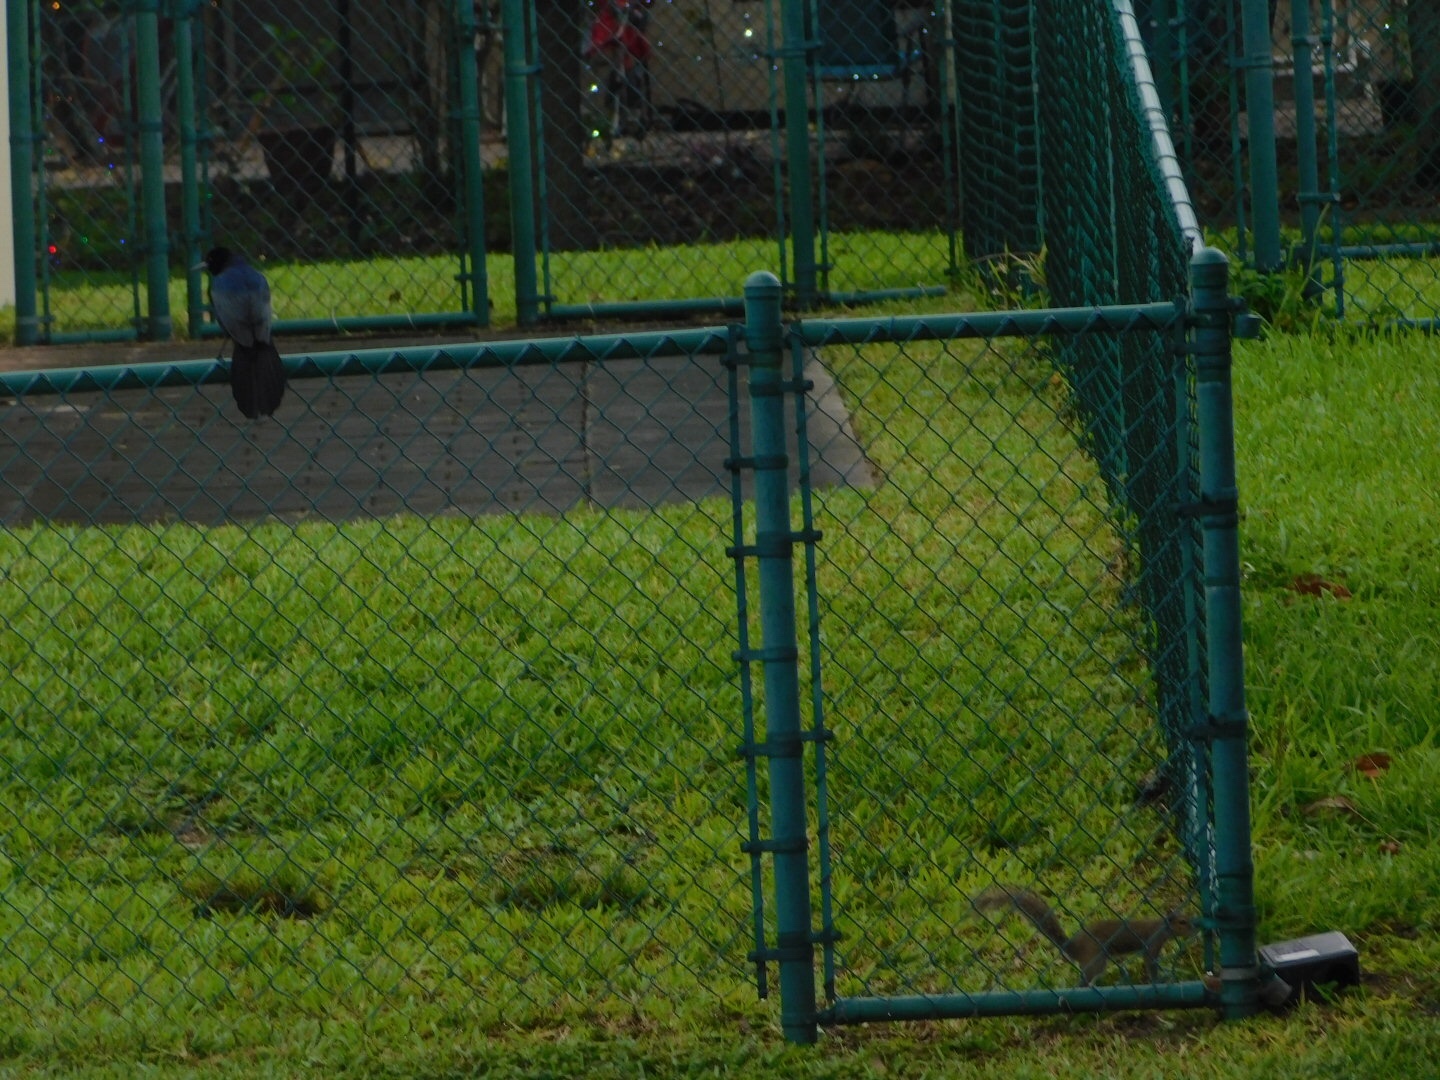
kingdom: Animalia
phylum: Chordata
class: Aves
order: Passeriformes
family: Icteridae
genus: Quiscalus
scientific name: Quiscalus major
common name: Boat-tailed grackle
